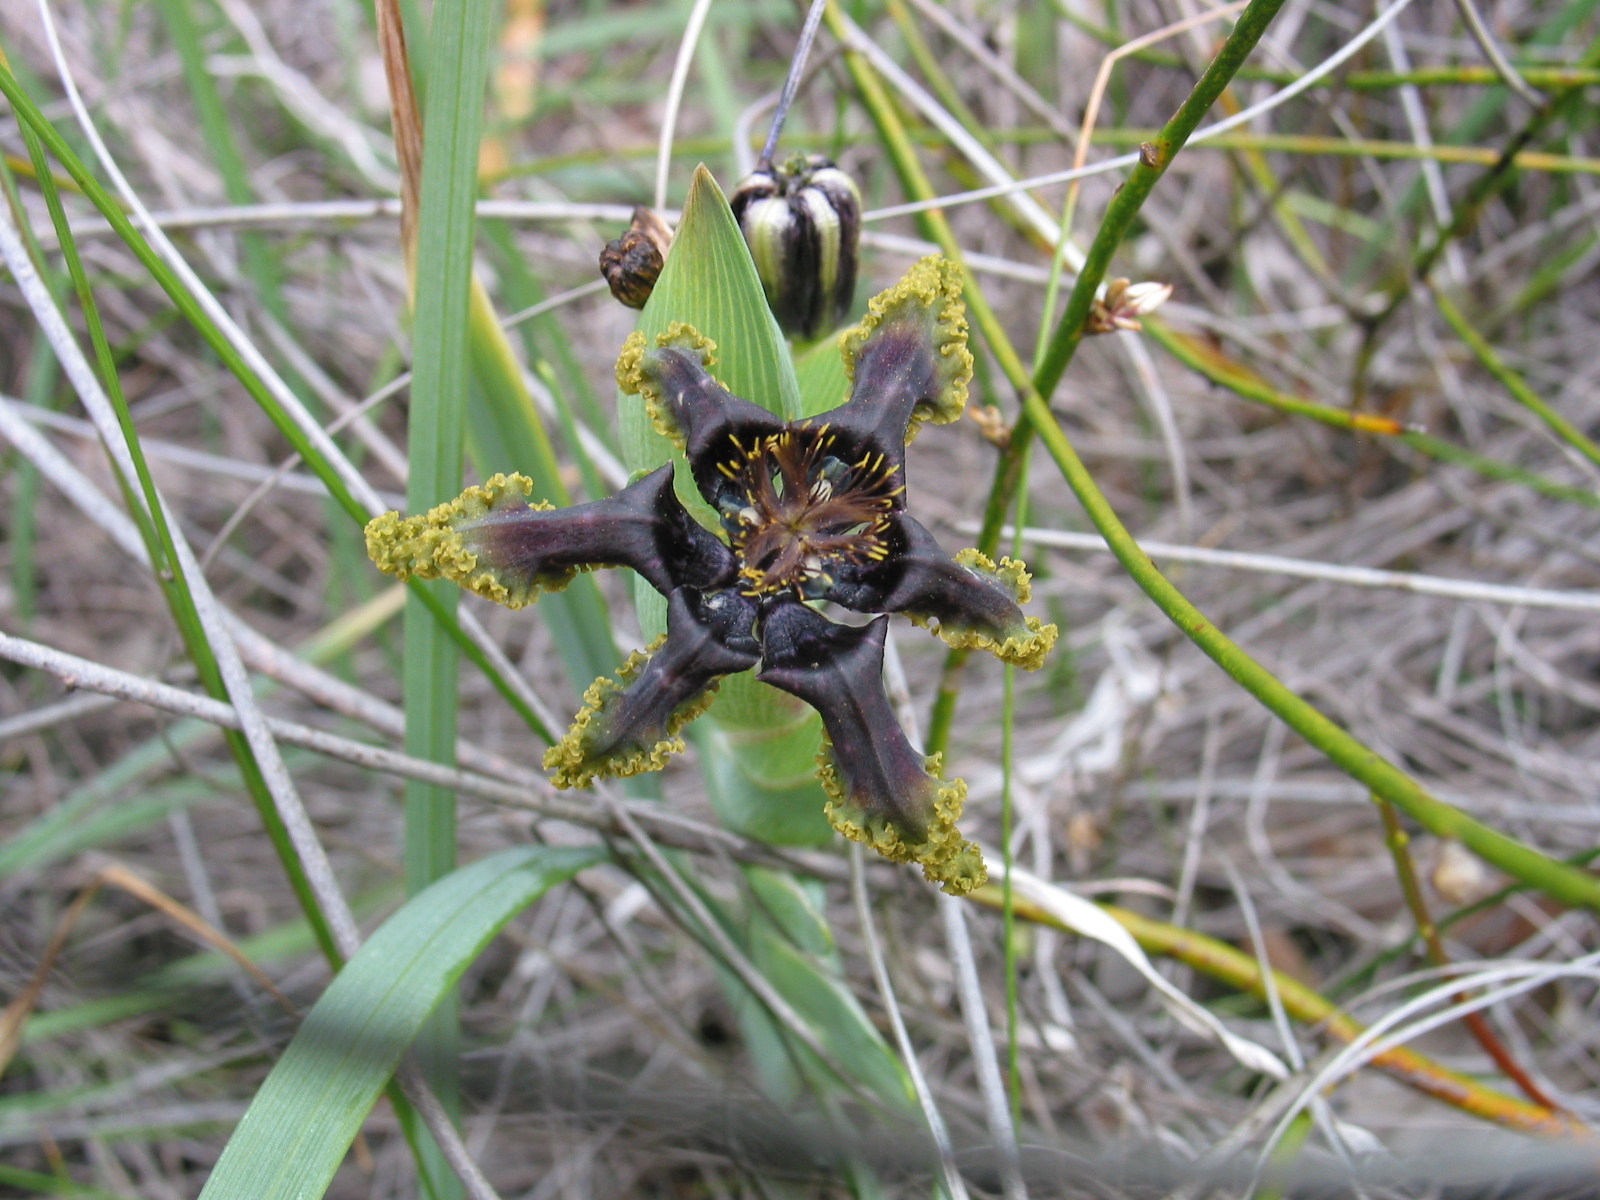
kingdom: Plantae
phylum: Tracheophyta
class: Liliopsida
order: Asparagales
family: Iridaceae
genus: Ferraria
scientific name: Ferraria crispa
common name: Black-flag
